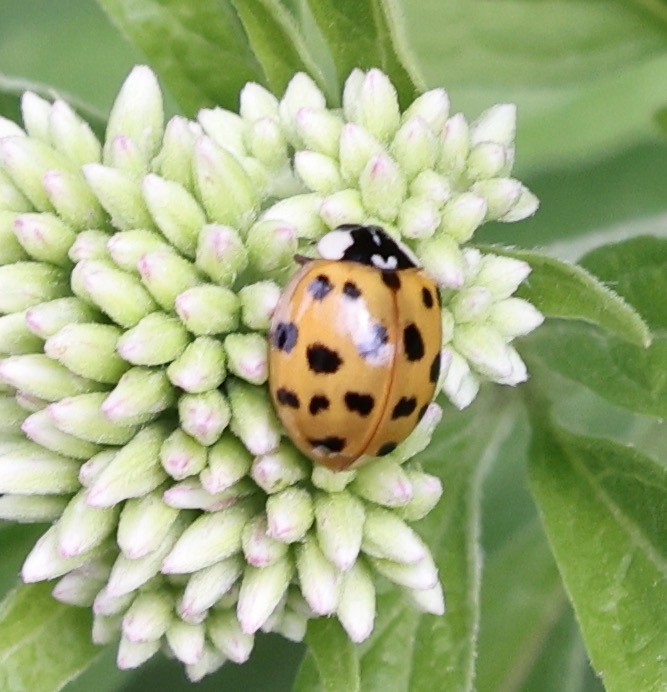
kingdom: Animalia
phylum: Arthropoda
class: Insecta
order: Coleoptera
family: Coccinellidae
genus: Harmonia
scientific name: Harmonia axyridis
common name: Harlequin ladybird
